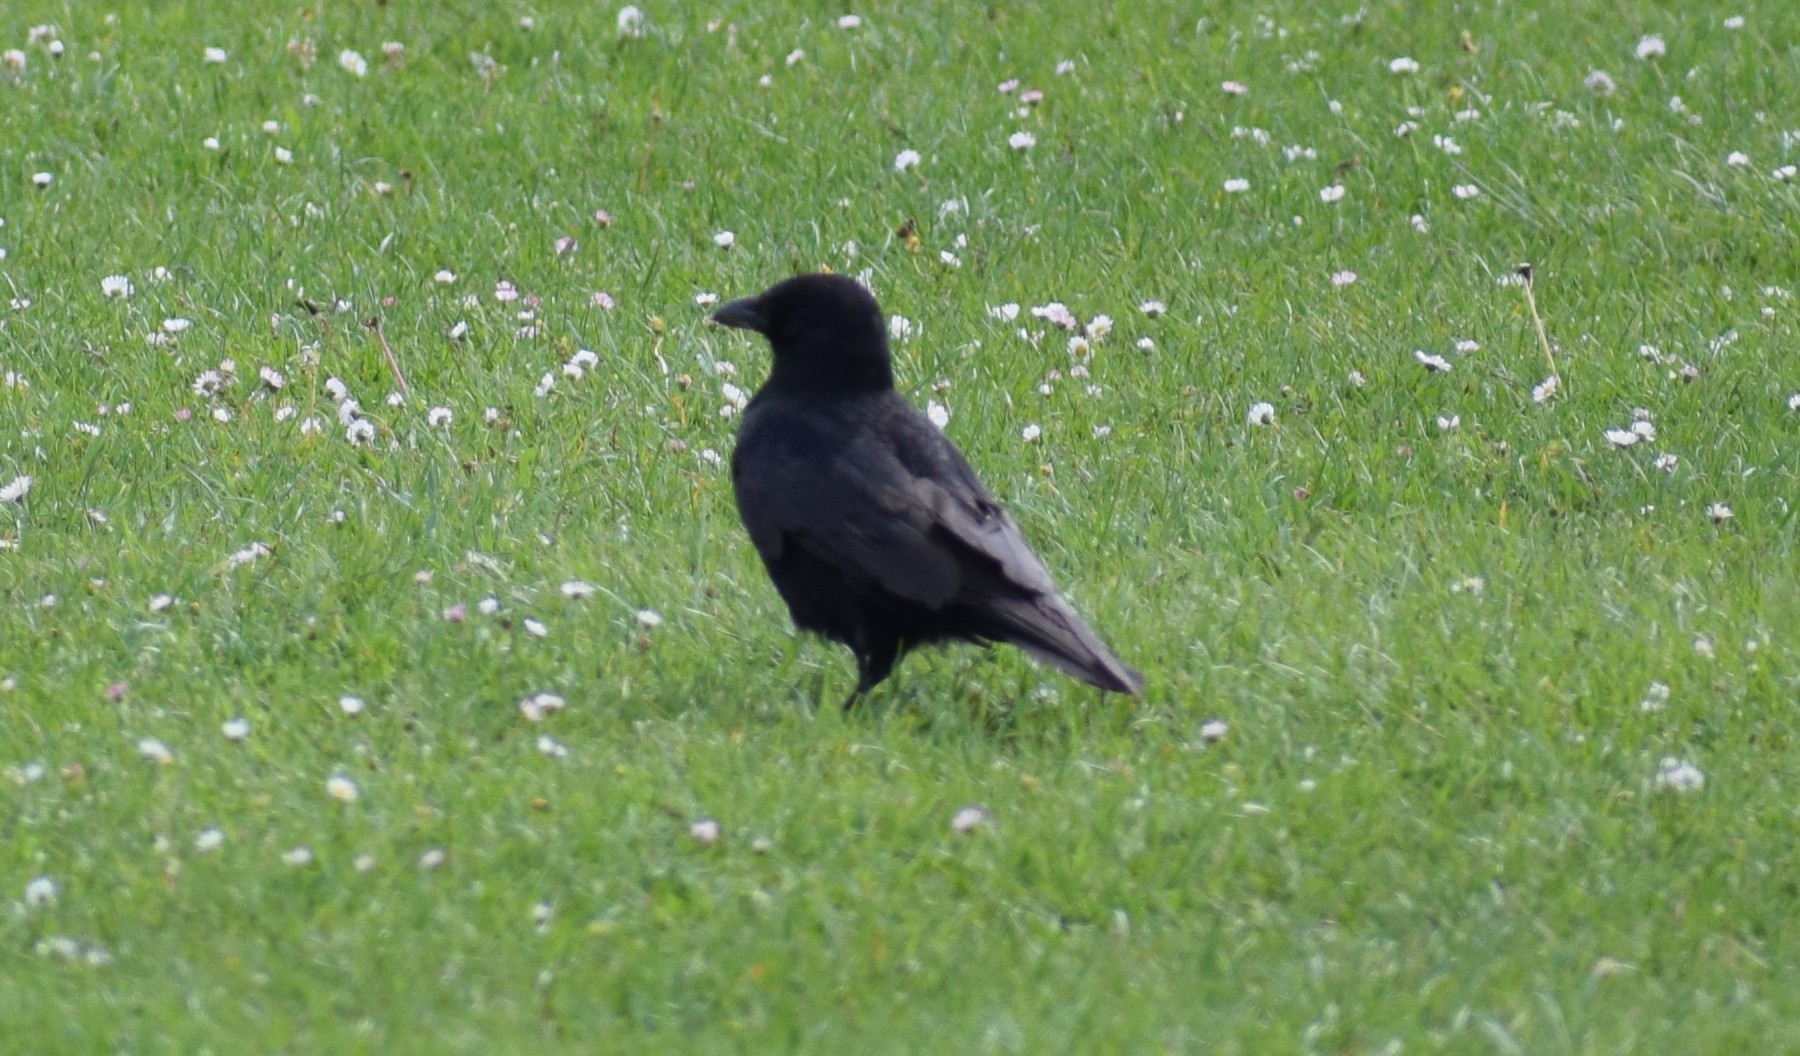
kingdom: Animalia
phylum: Chordata
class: Aves
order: Passeriformes
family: Corvidae
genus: Corvus
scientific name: Corvus corone
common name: Carrion crow
